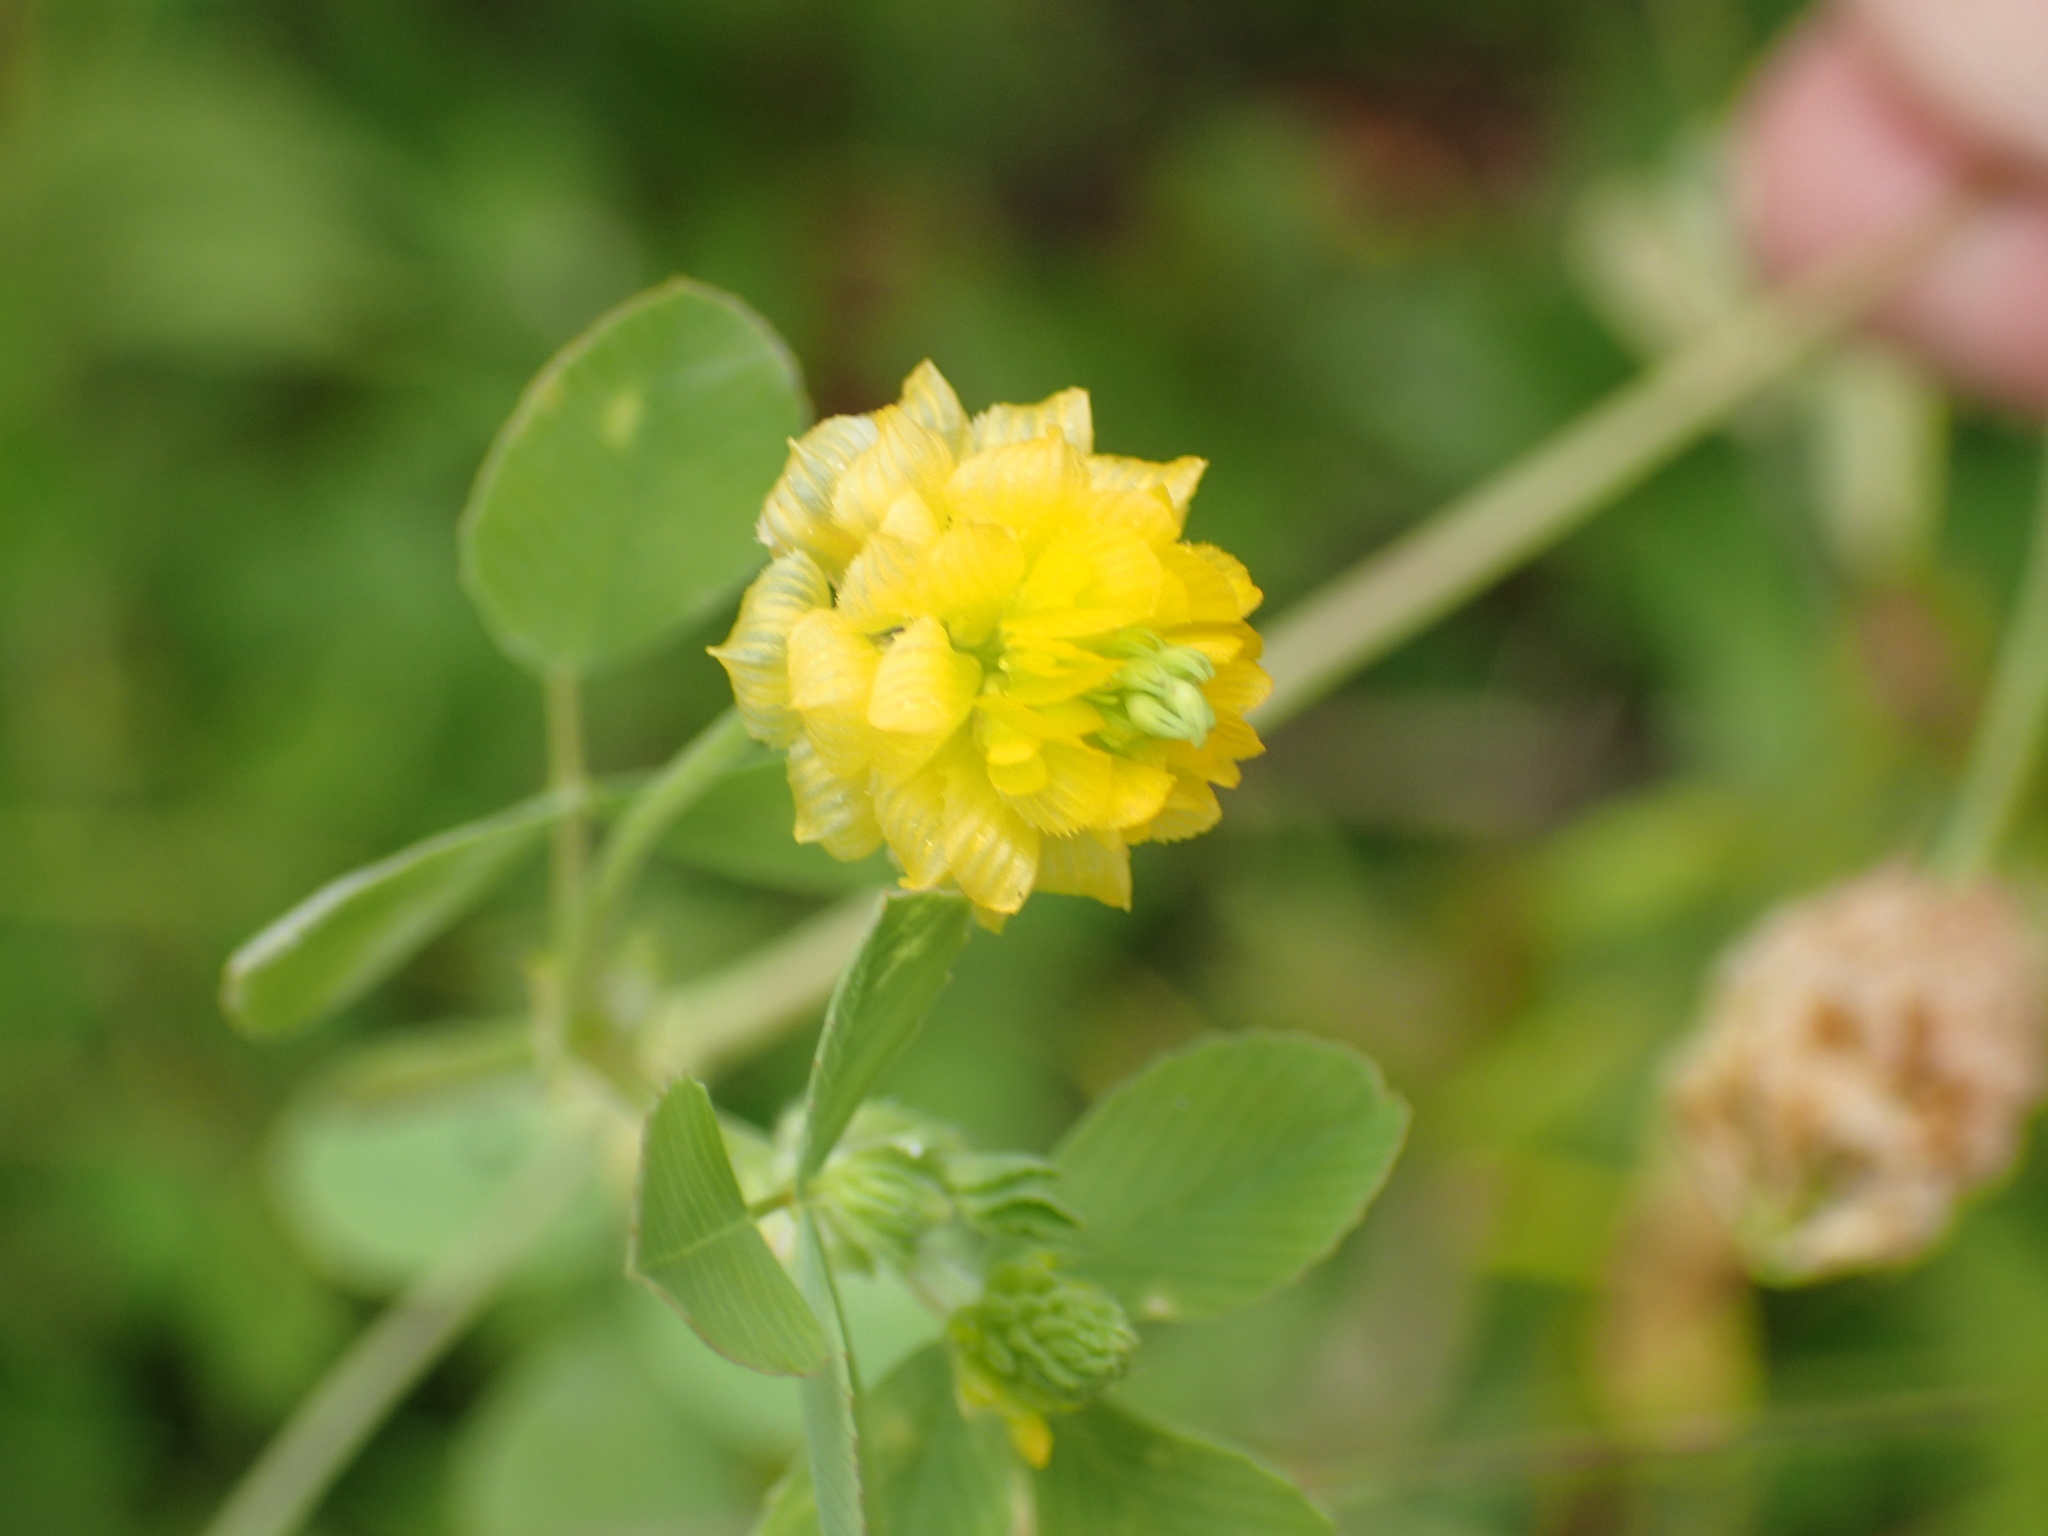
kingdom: Plantae
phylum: Tracheophyta
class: Magnoliopsida
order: Fabales
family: Fabaceae
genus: Trifolium
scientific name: Trifolium campestre
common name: Field clover
